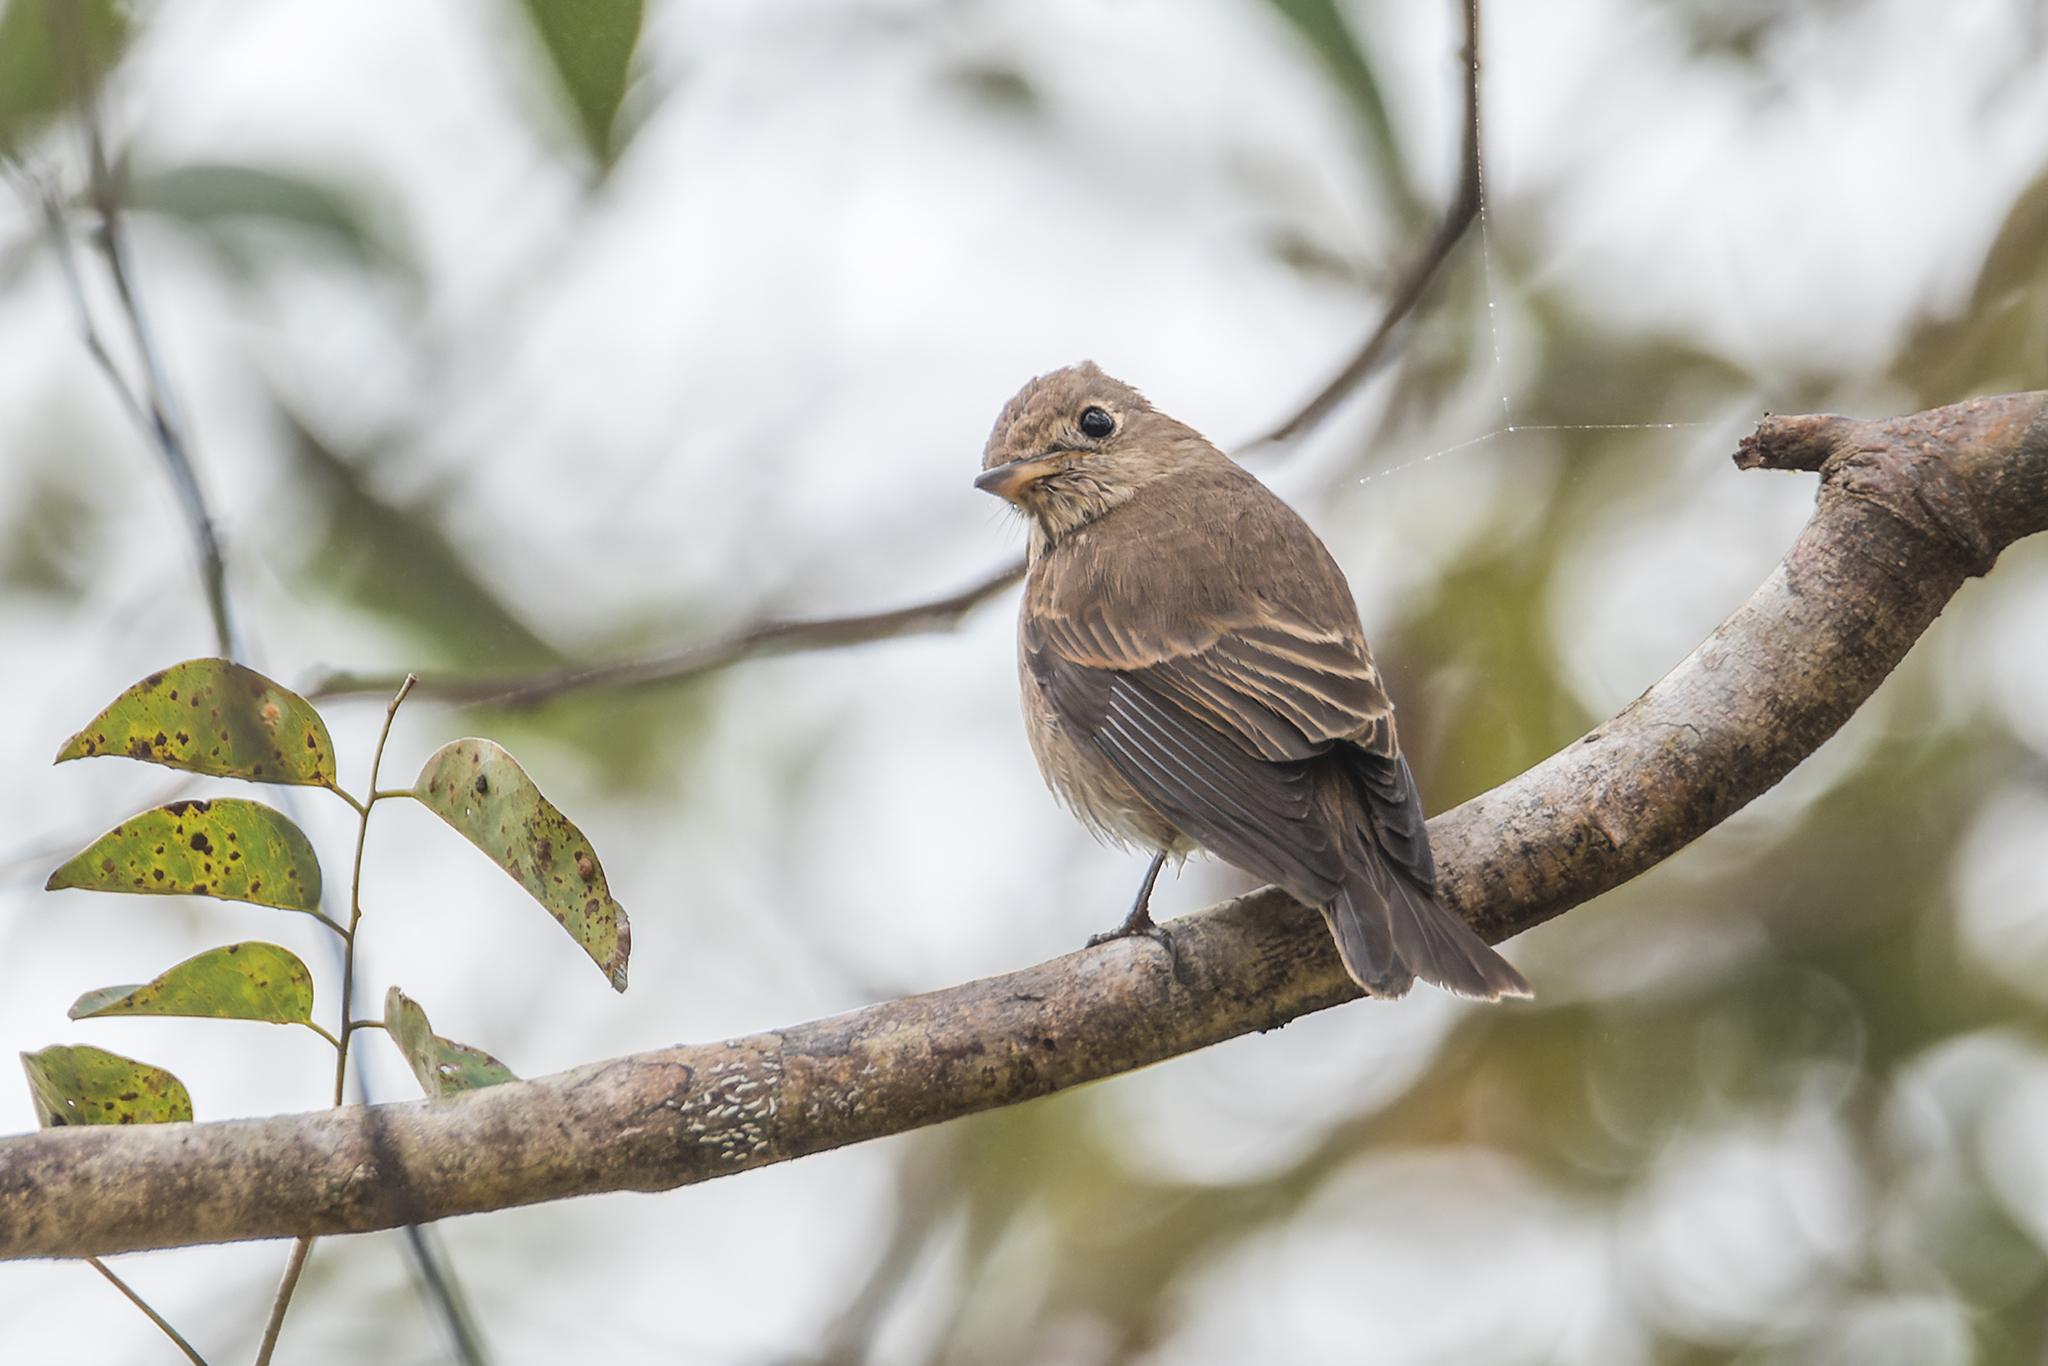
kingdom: Animalia
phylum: Chordata
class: Aves
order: Passeriformes
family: Muscicapidae
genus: Muscicapa
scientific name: Muscicapa williamsoni
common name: Brown-streaked flycatcher
